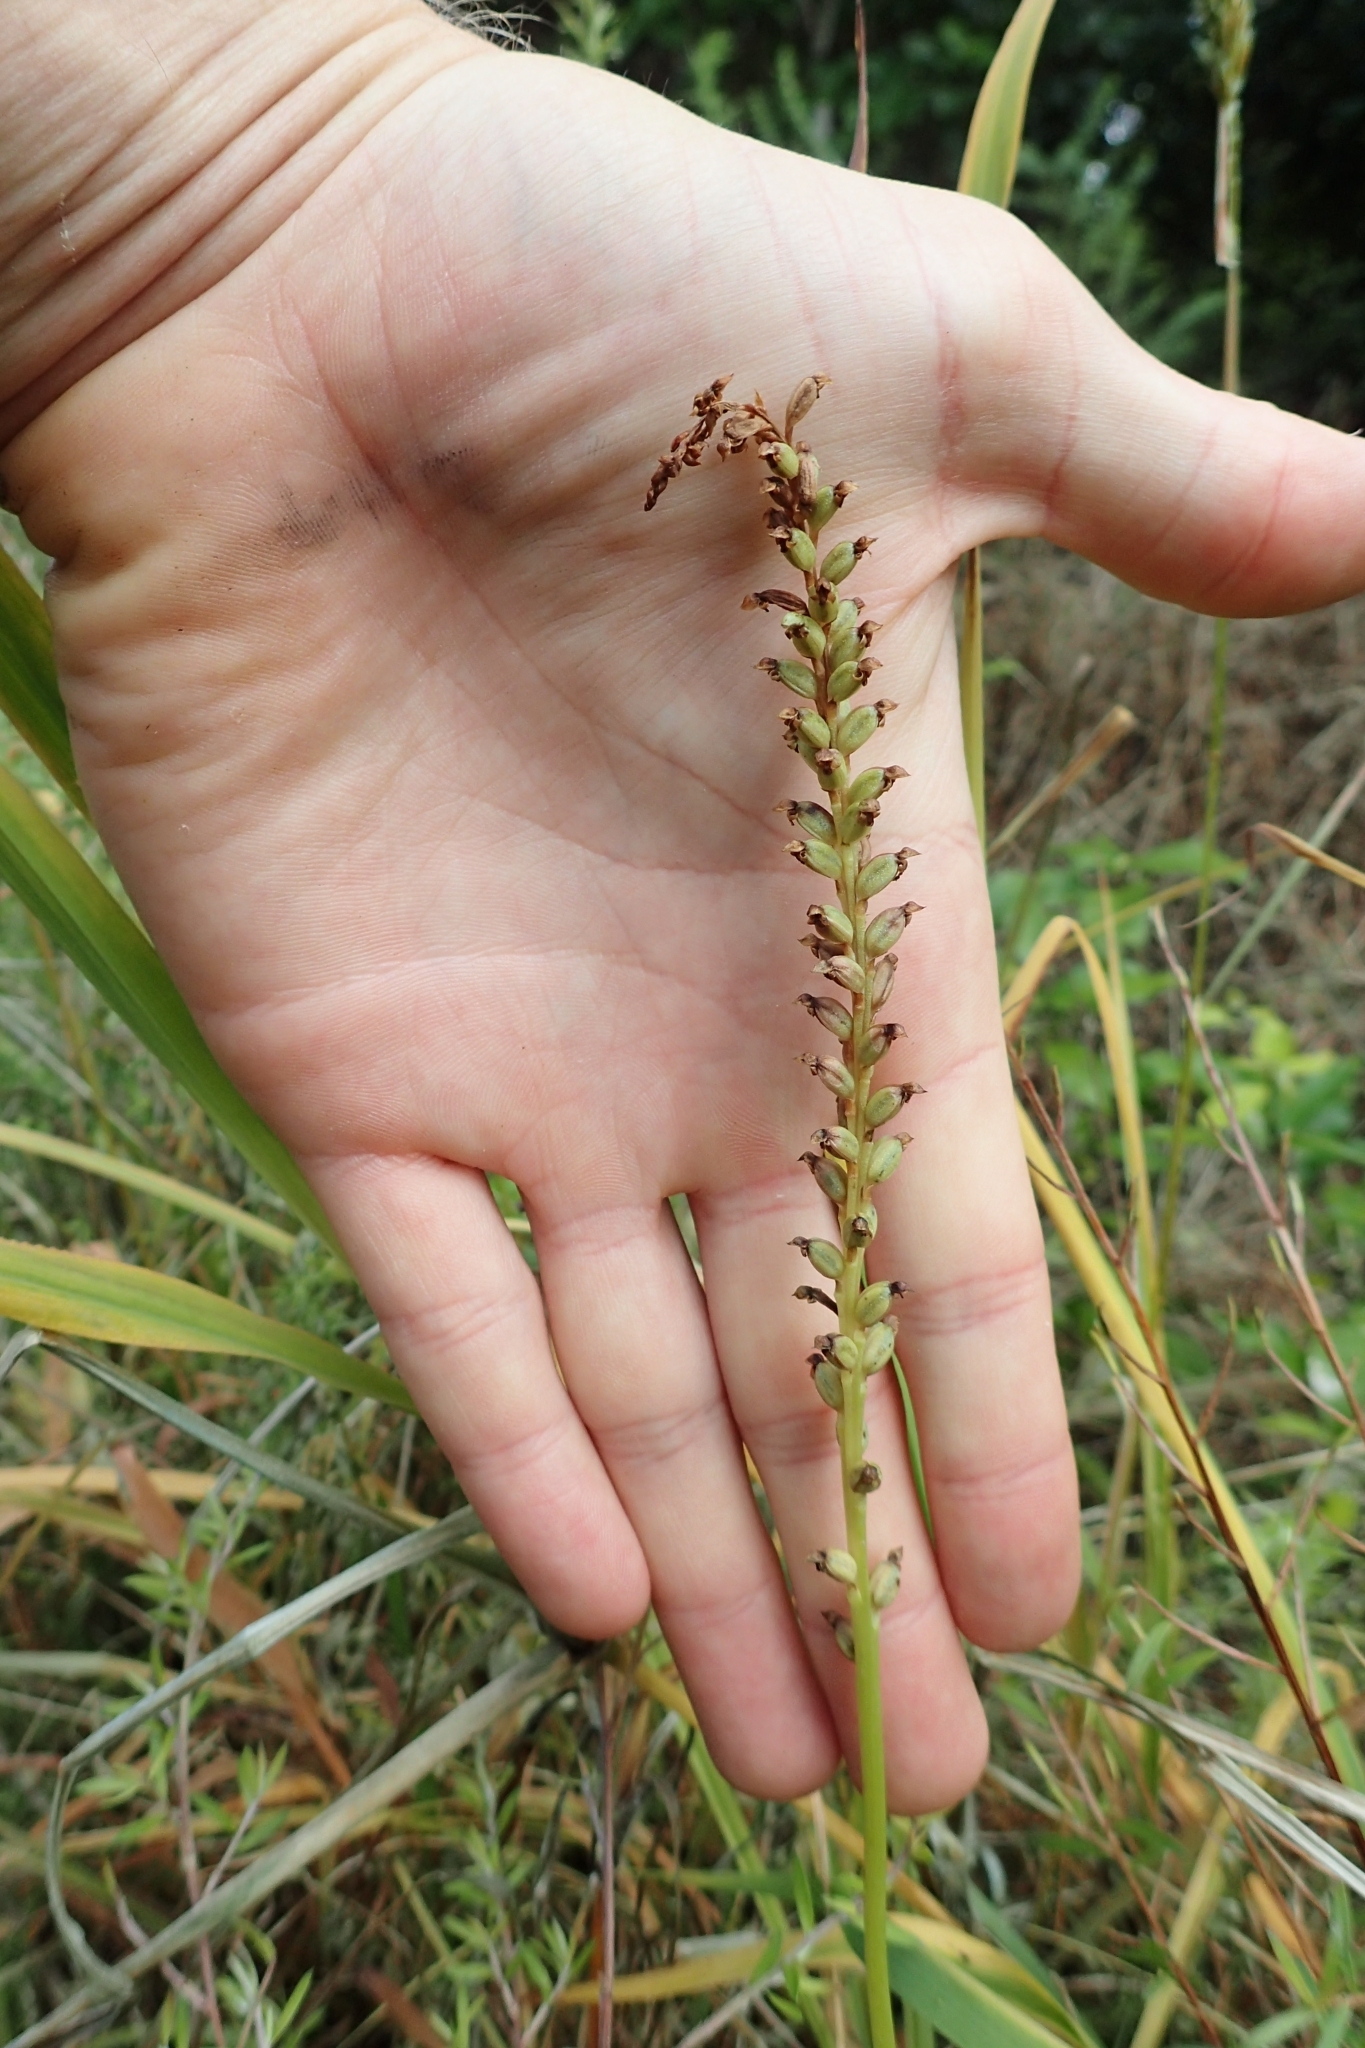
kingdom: Plantae
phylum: Tracheophyta
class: Liliopsida
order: Asparagales
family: Orchidaceae
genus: Microtis
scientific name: Microtis unifolia
